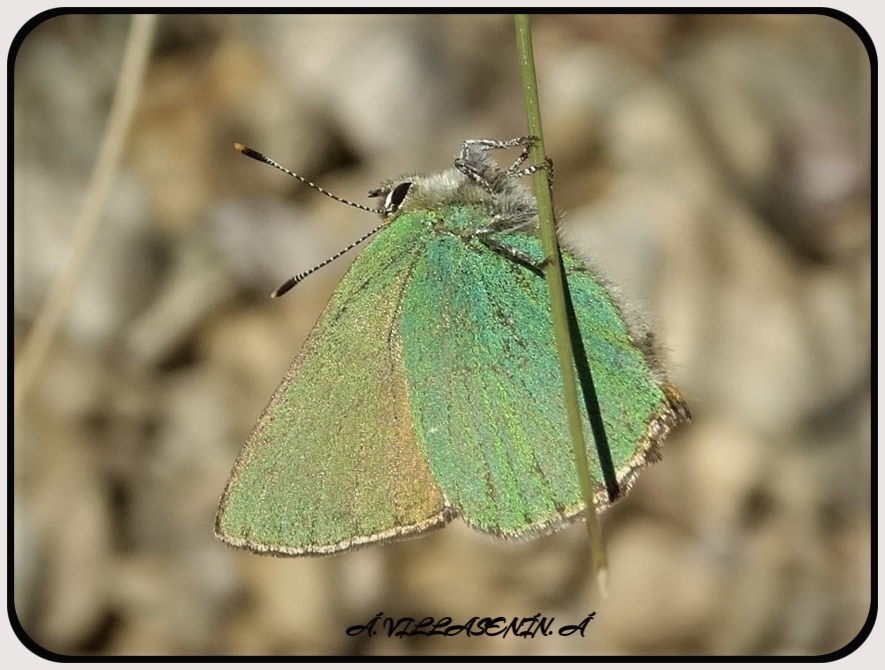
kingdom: Animalia
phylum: Arthropoda
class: Insecta
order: Lepidoptera
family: Lycaenidae
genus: Callophrys
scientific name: Callophrys rubi
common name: Green hairstreak
